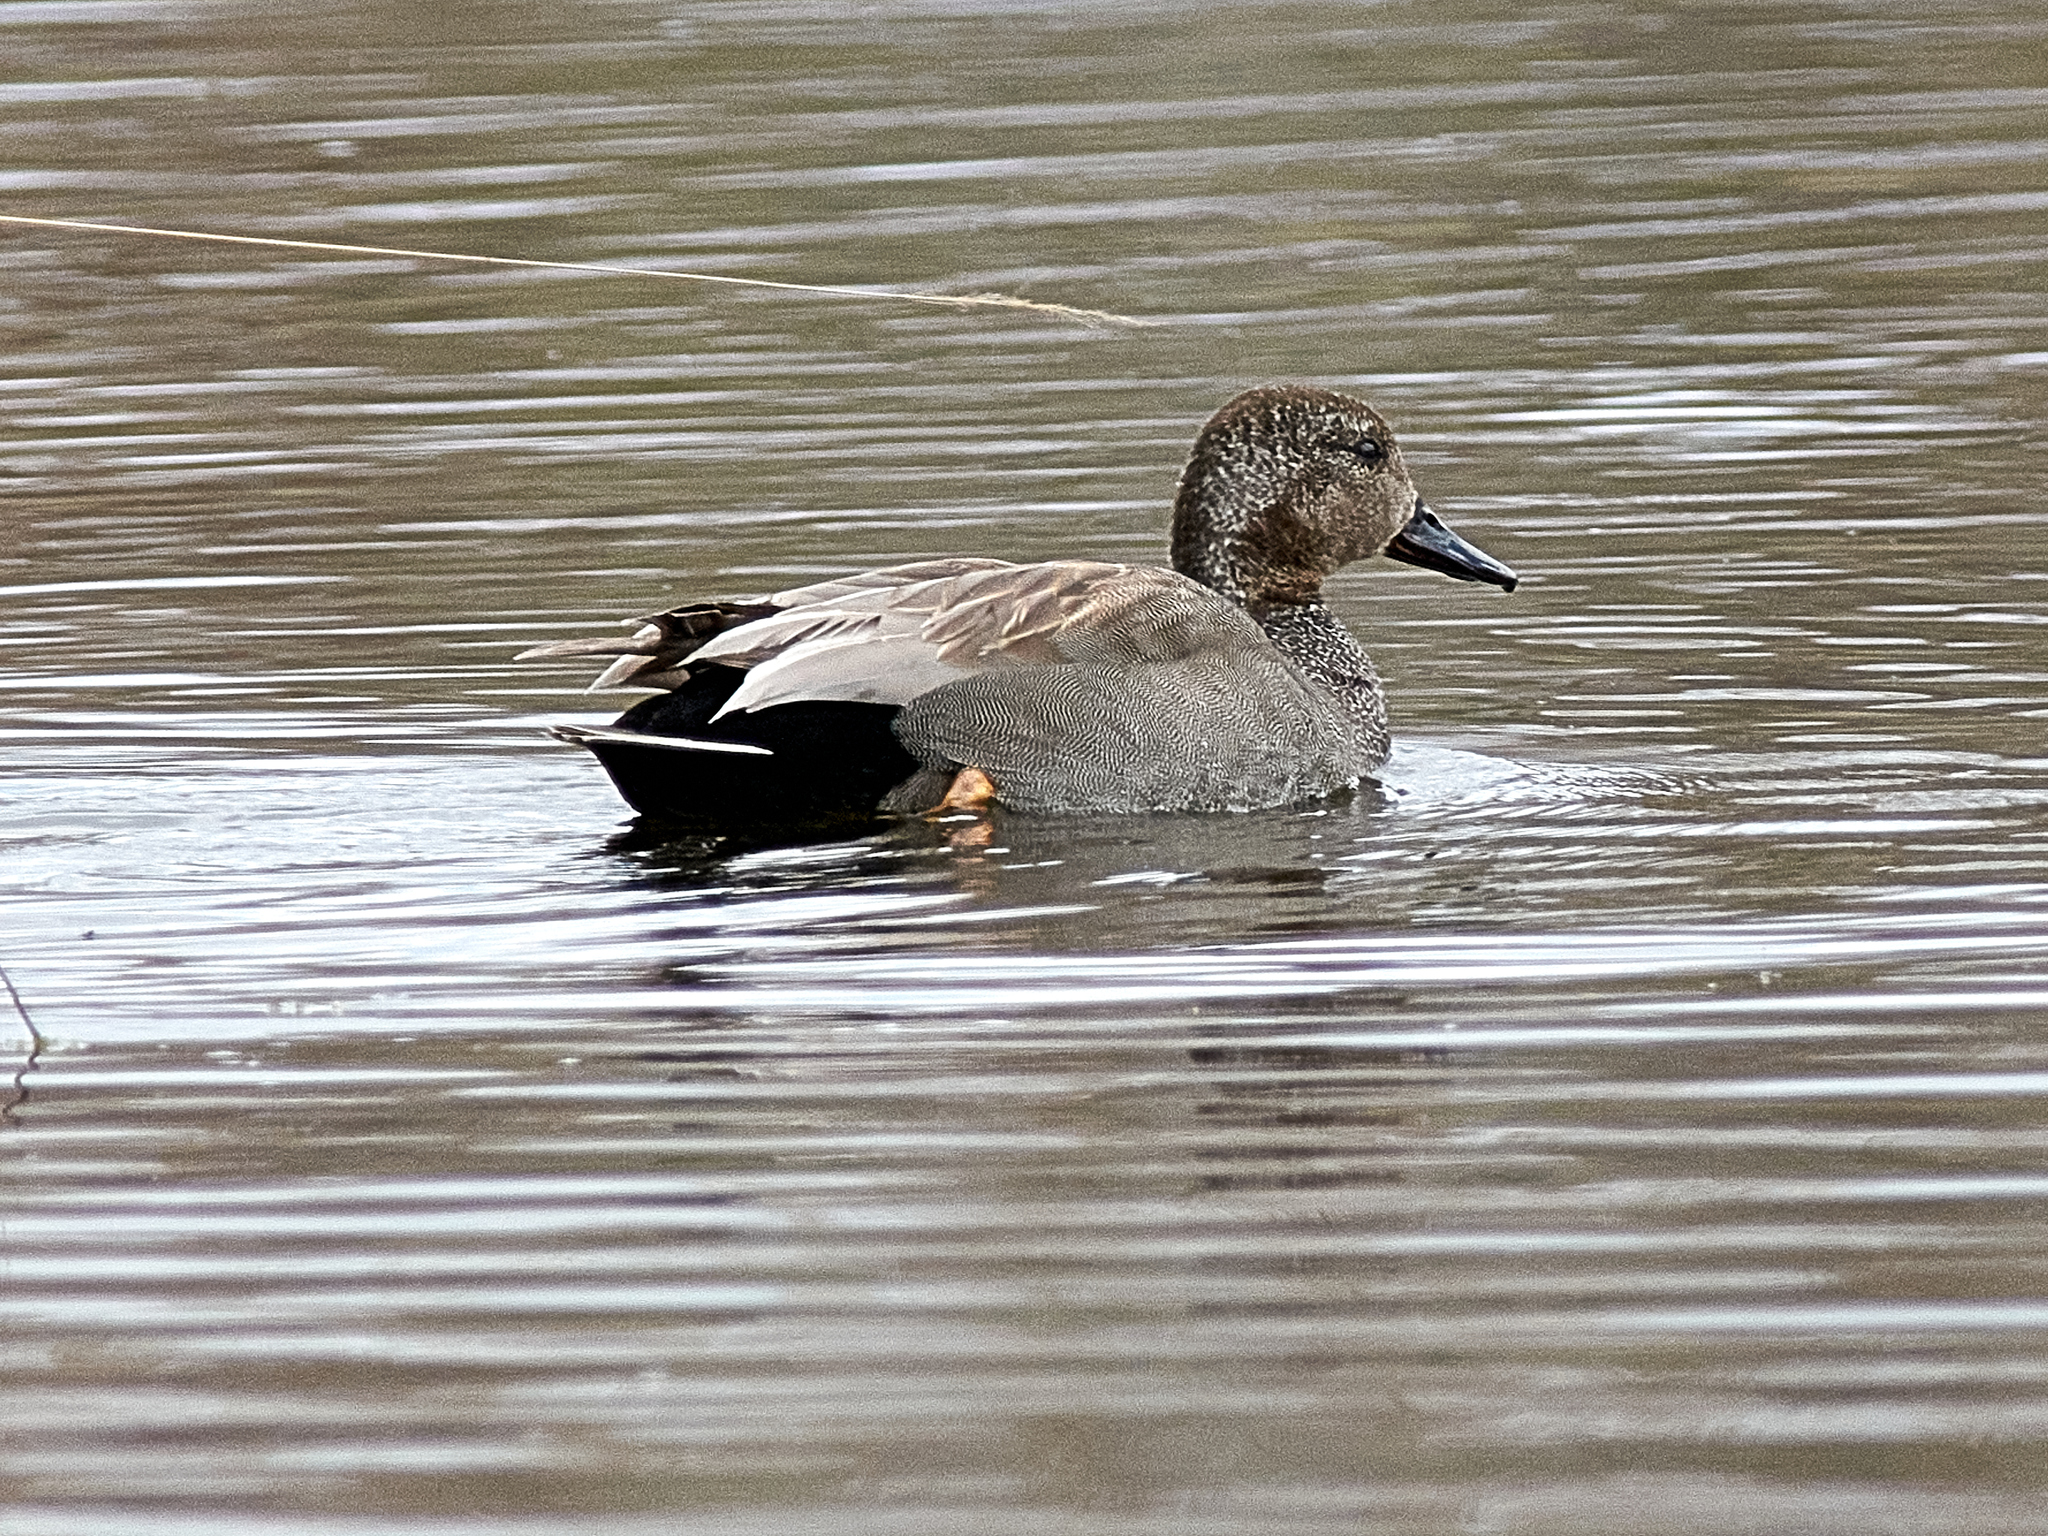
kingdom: Animalia
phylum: Chordata
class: Aves
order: Anseriformes
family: Anatidae
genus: Mareca
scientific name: Mareca strepera
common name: Gadwall
